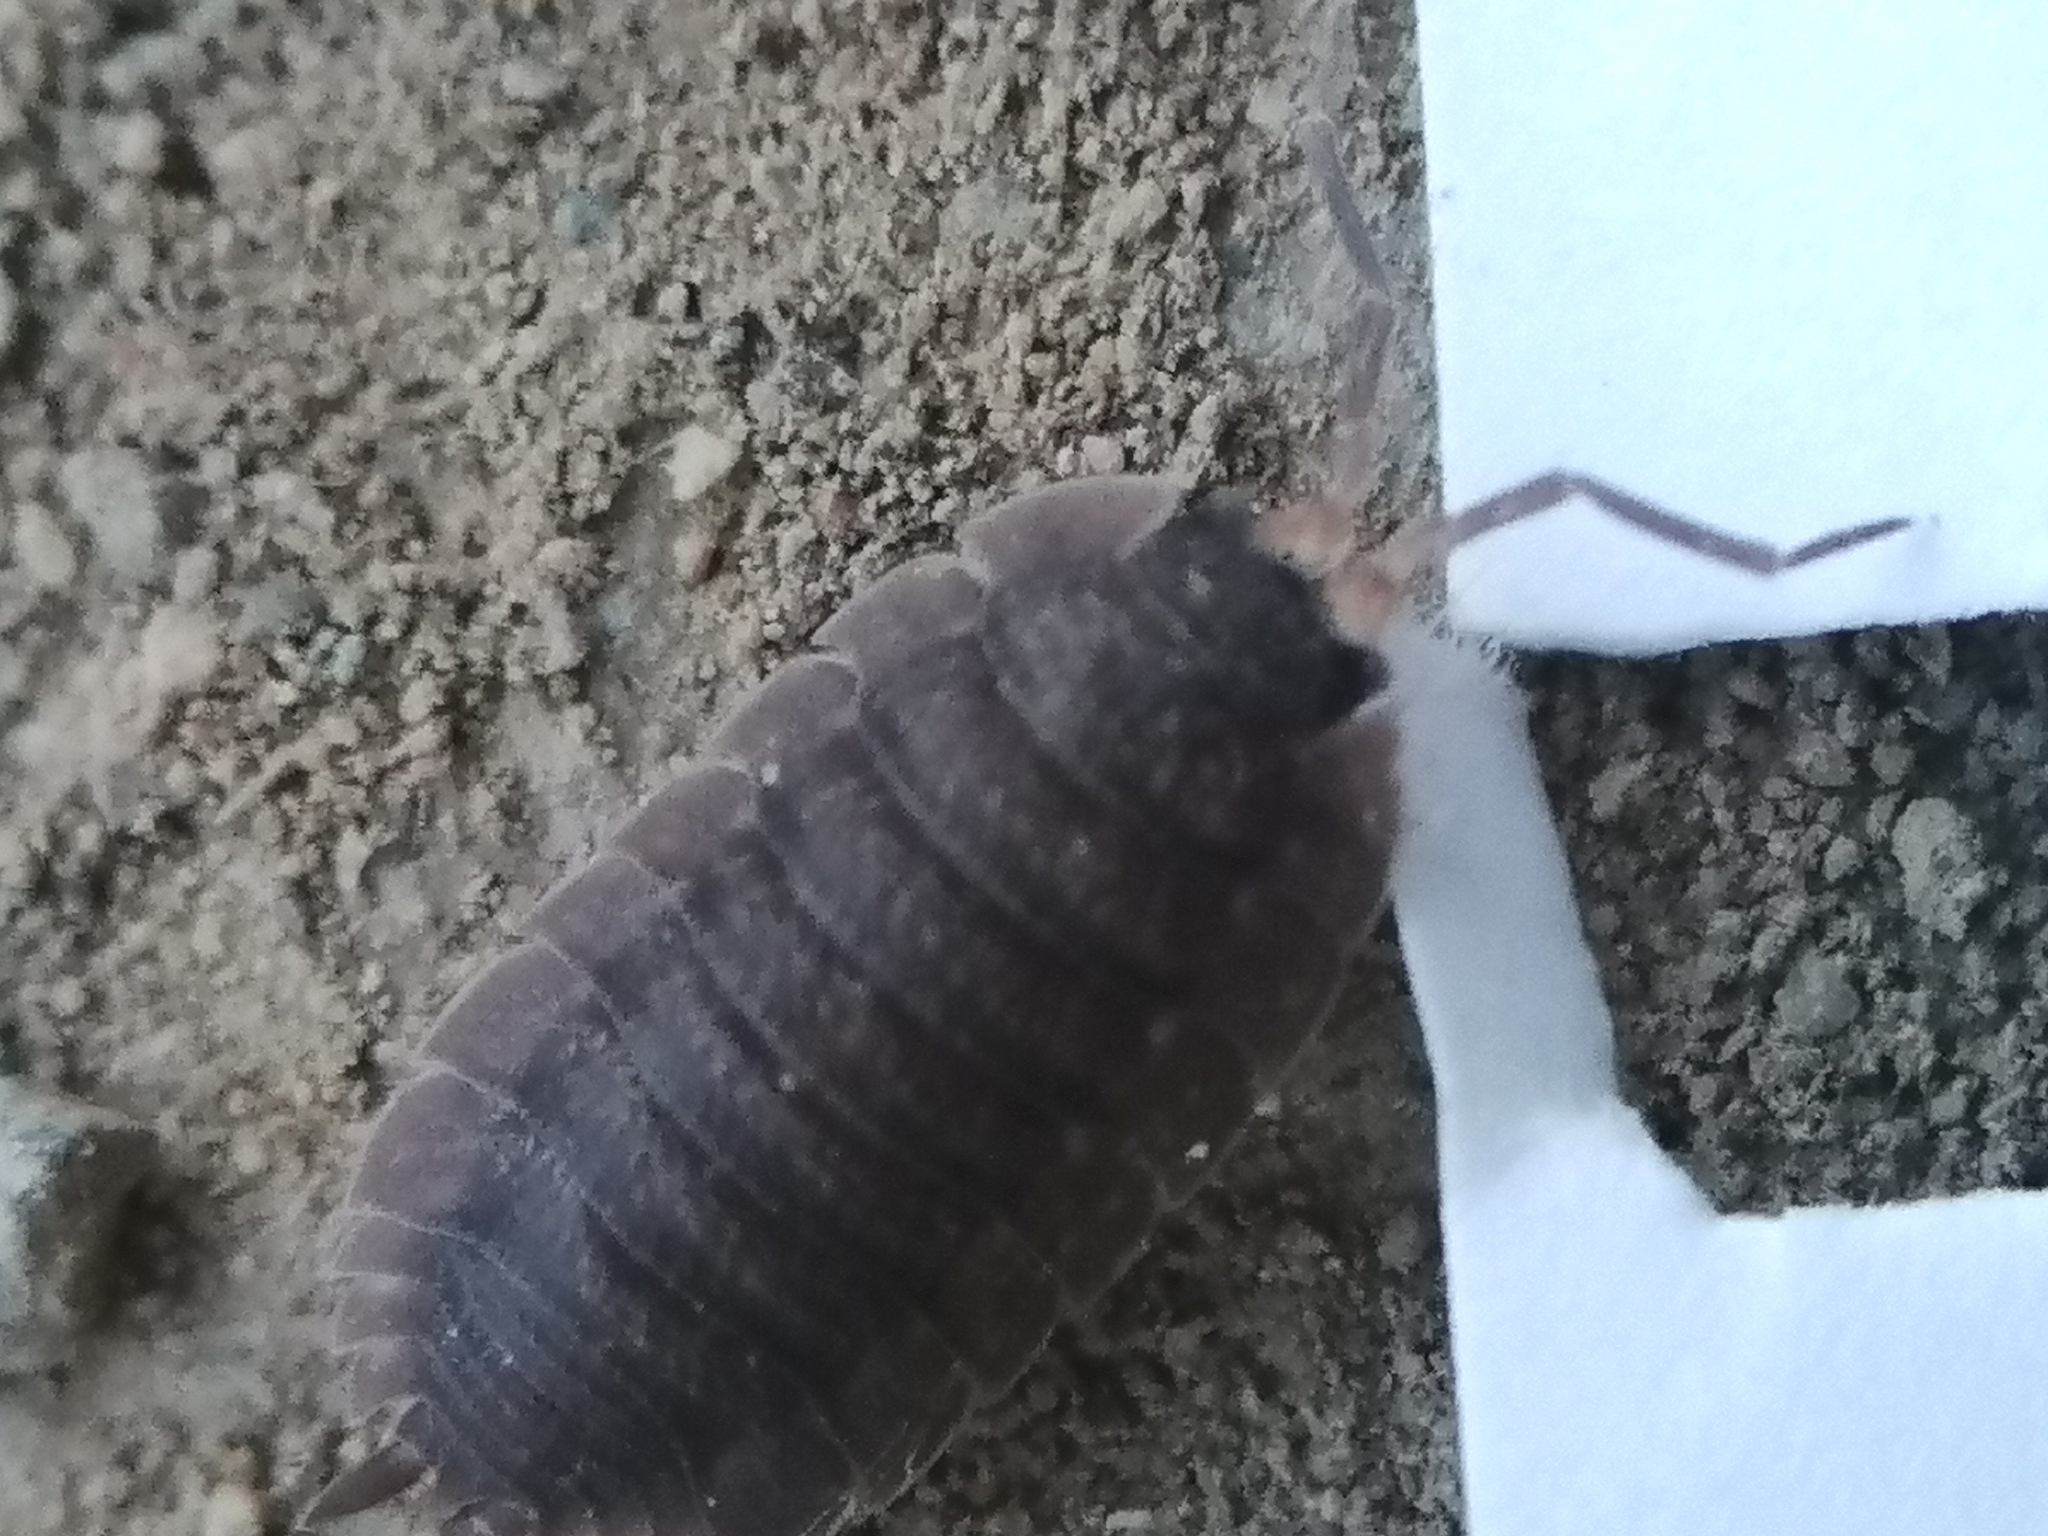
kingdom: Animalia
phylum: Arthropoda
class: Malacostraca
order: Isopoda
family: Porcellionidae
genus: Porcellio
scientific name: Porcellio scaber
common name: Common rough woodlouse
